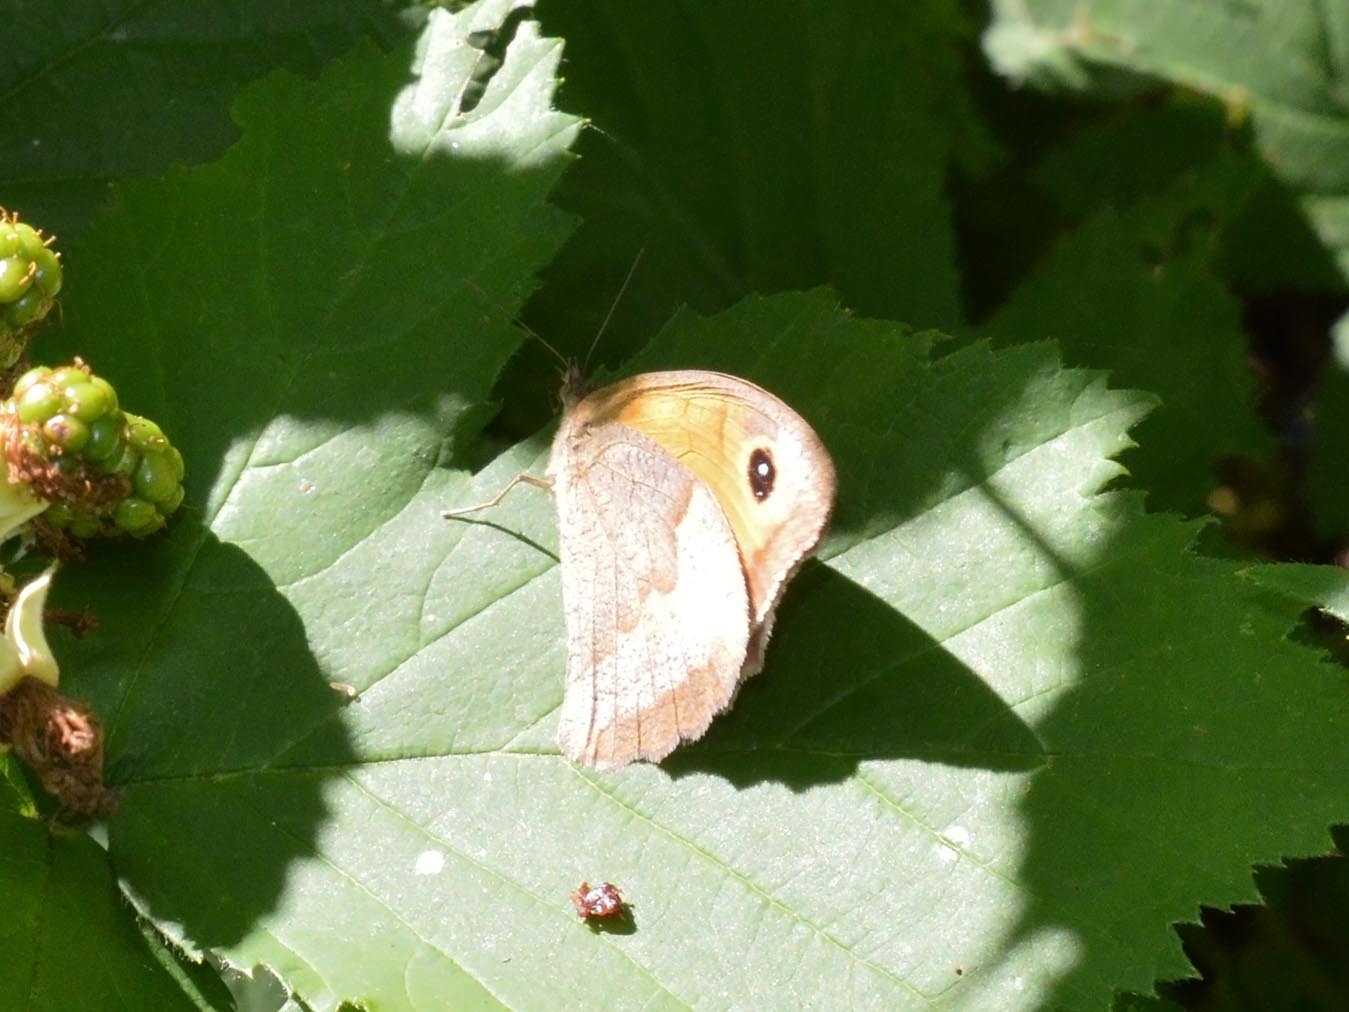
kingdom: Animalia
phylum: Arthropoda
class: Insecta
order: Lepidoptera
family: Nymphalidae
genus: Maniola
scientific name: Maniola jurtina
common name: Meadow brown
